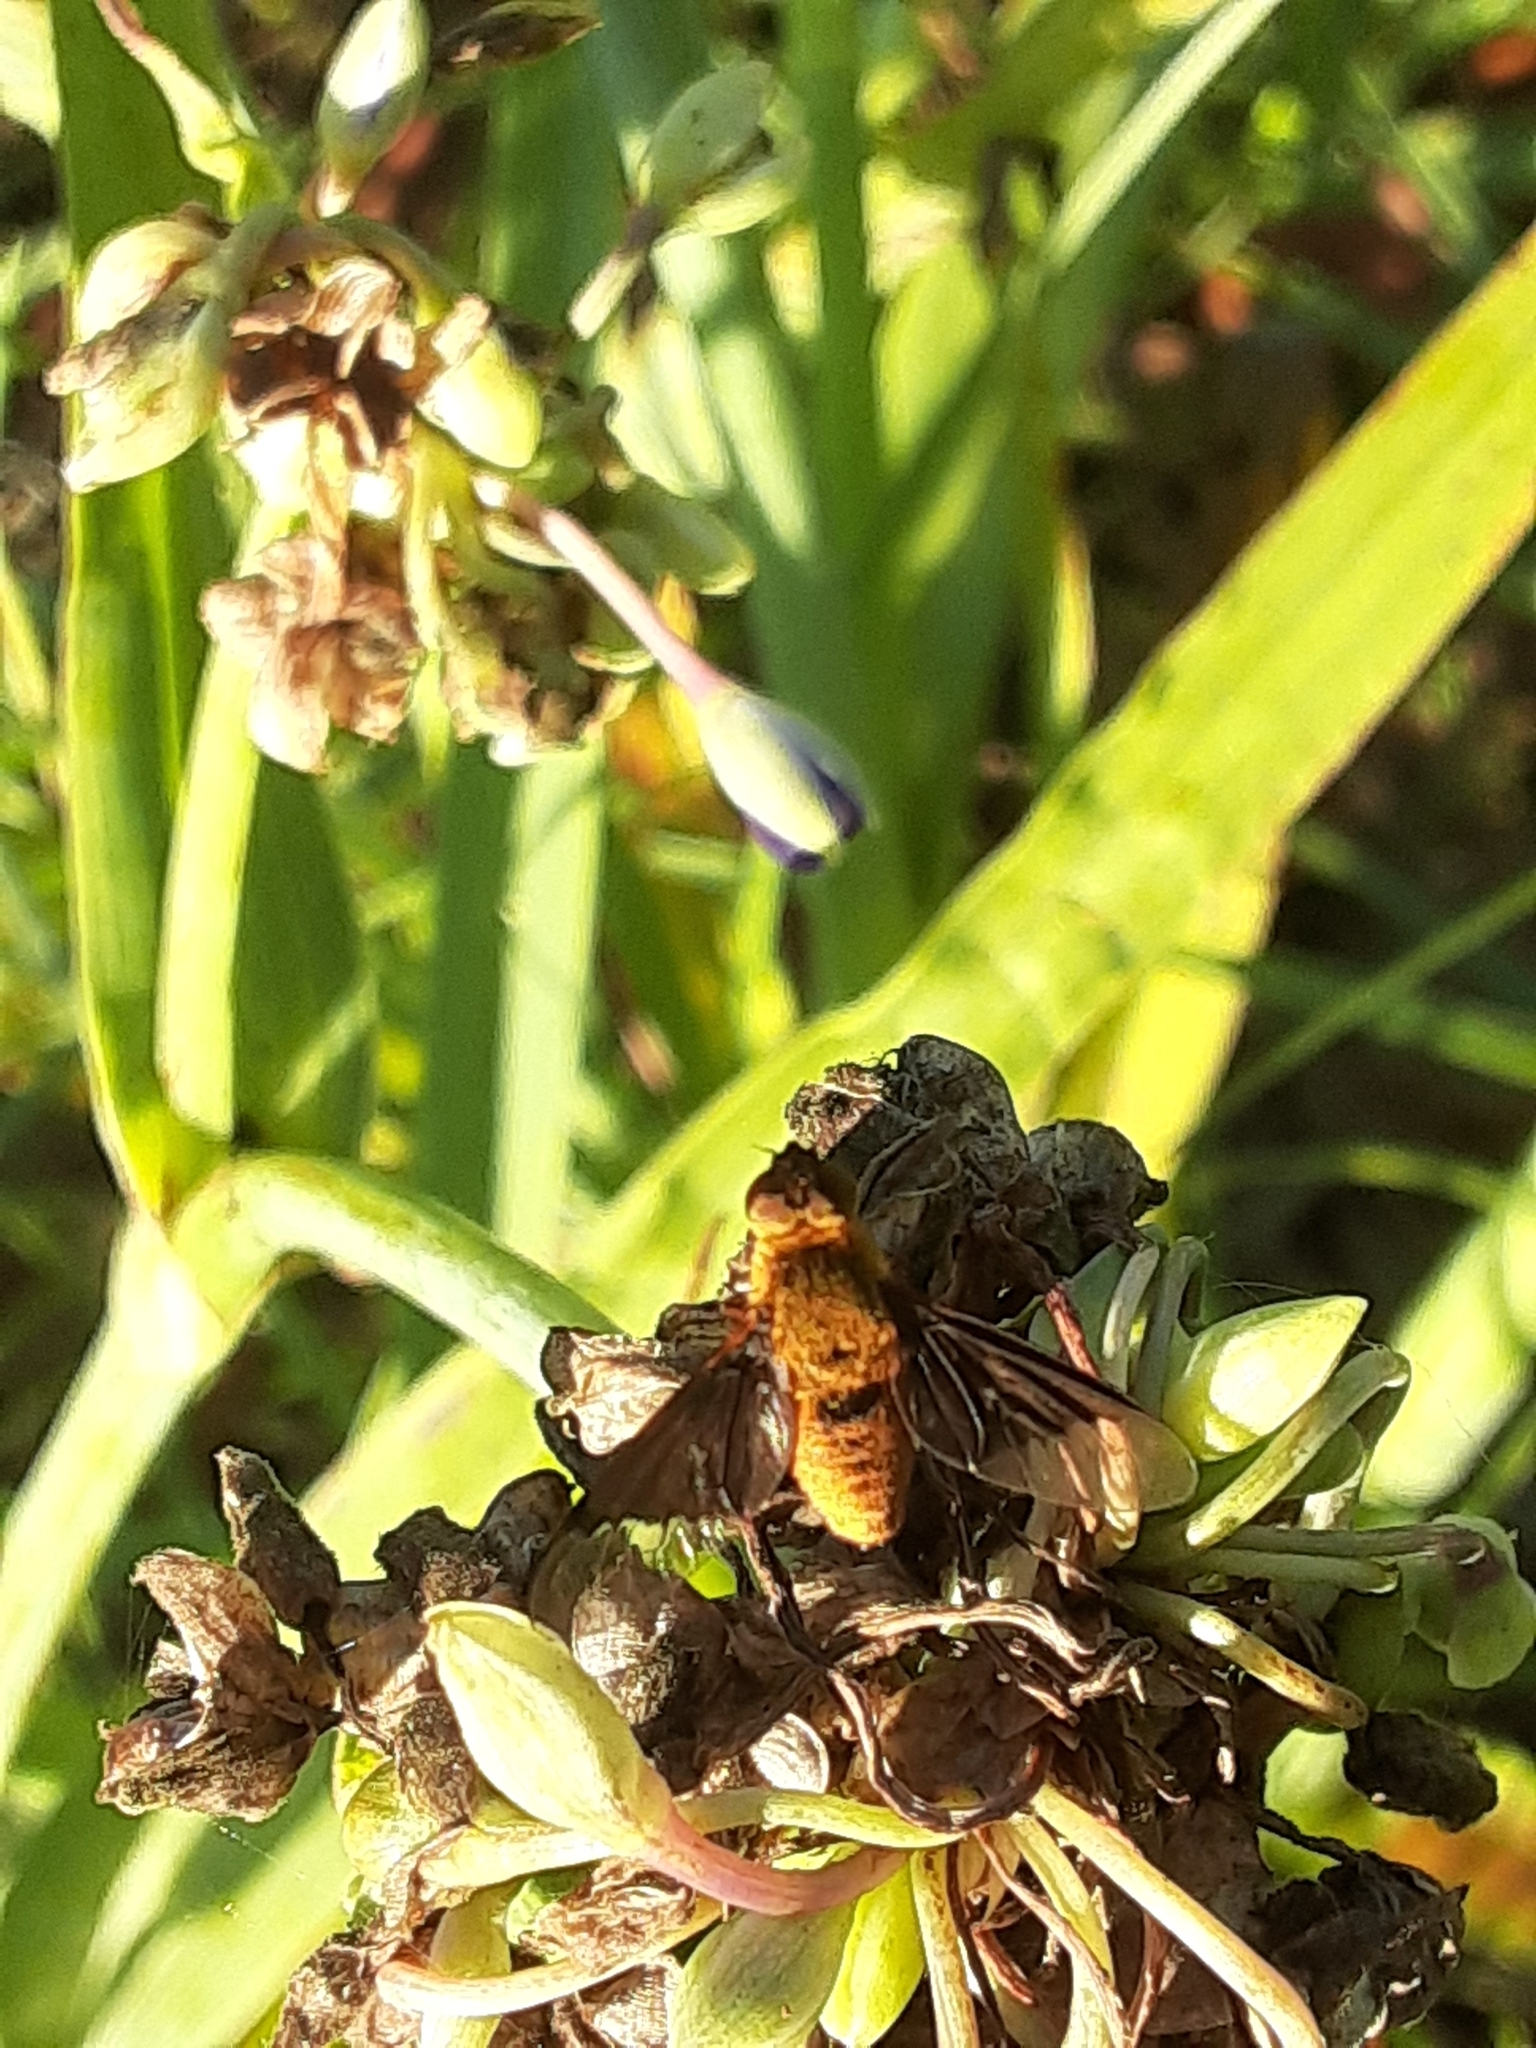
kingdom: Animalia
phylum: Arthropoda
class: Insecta
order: Diptera
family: Bombyliidae
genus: Chrysanthrax
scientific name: Chrysanthrax cypris
